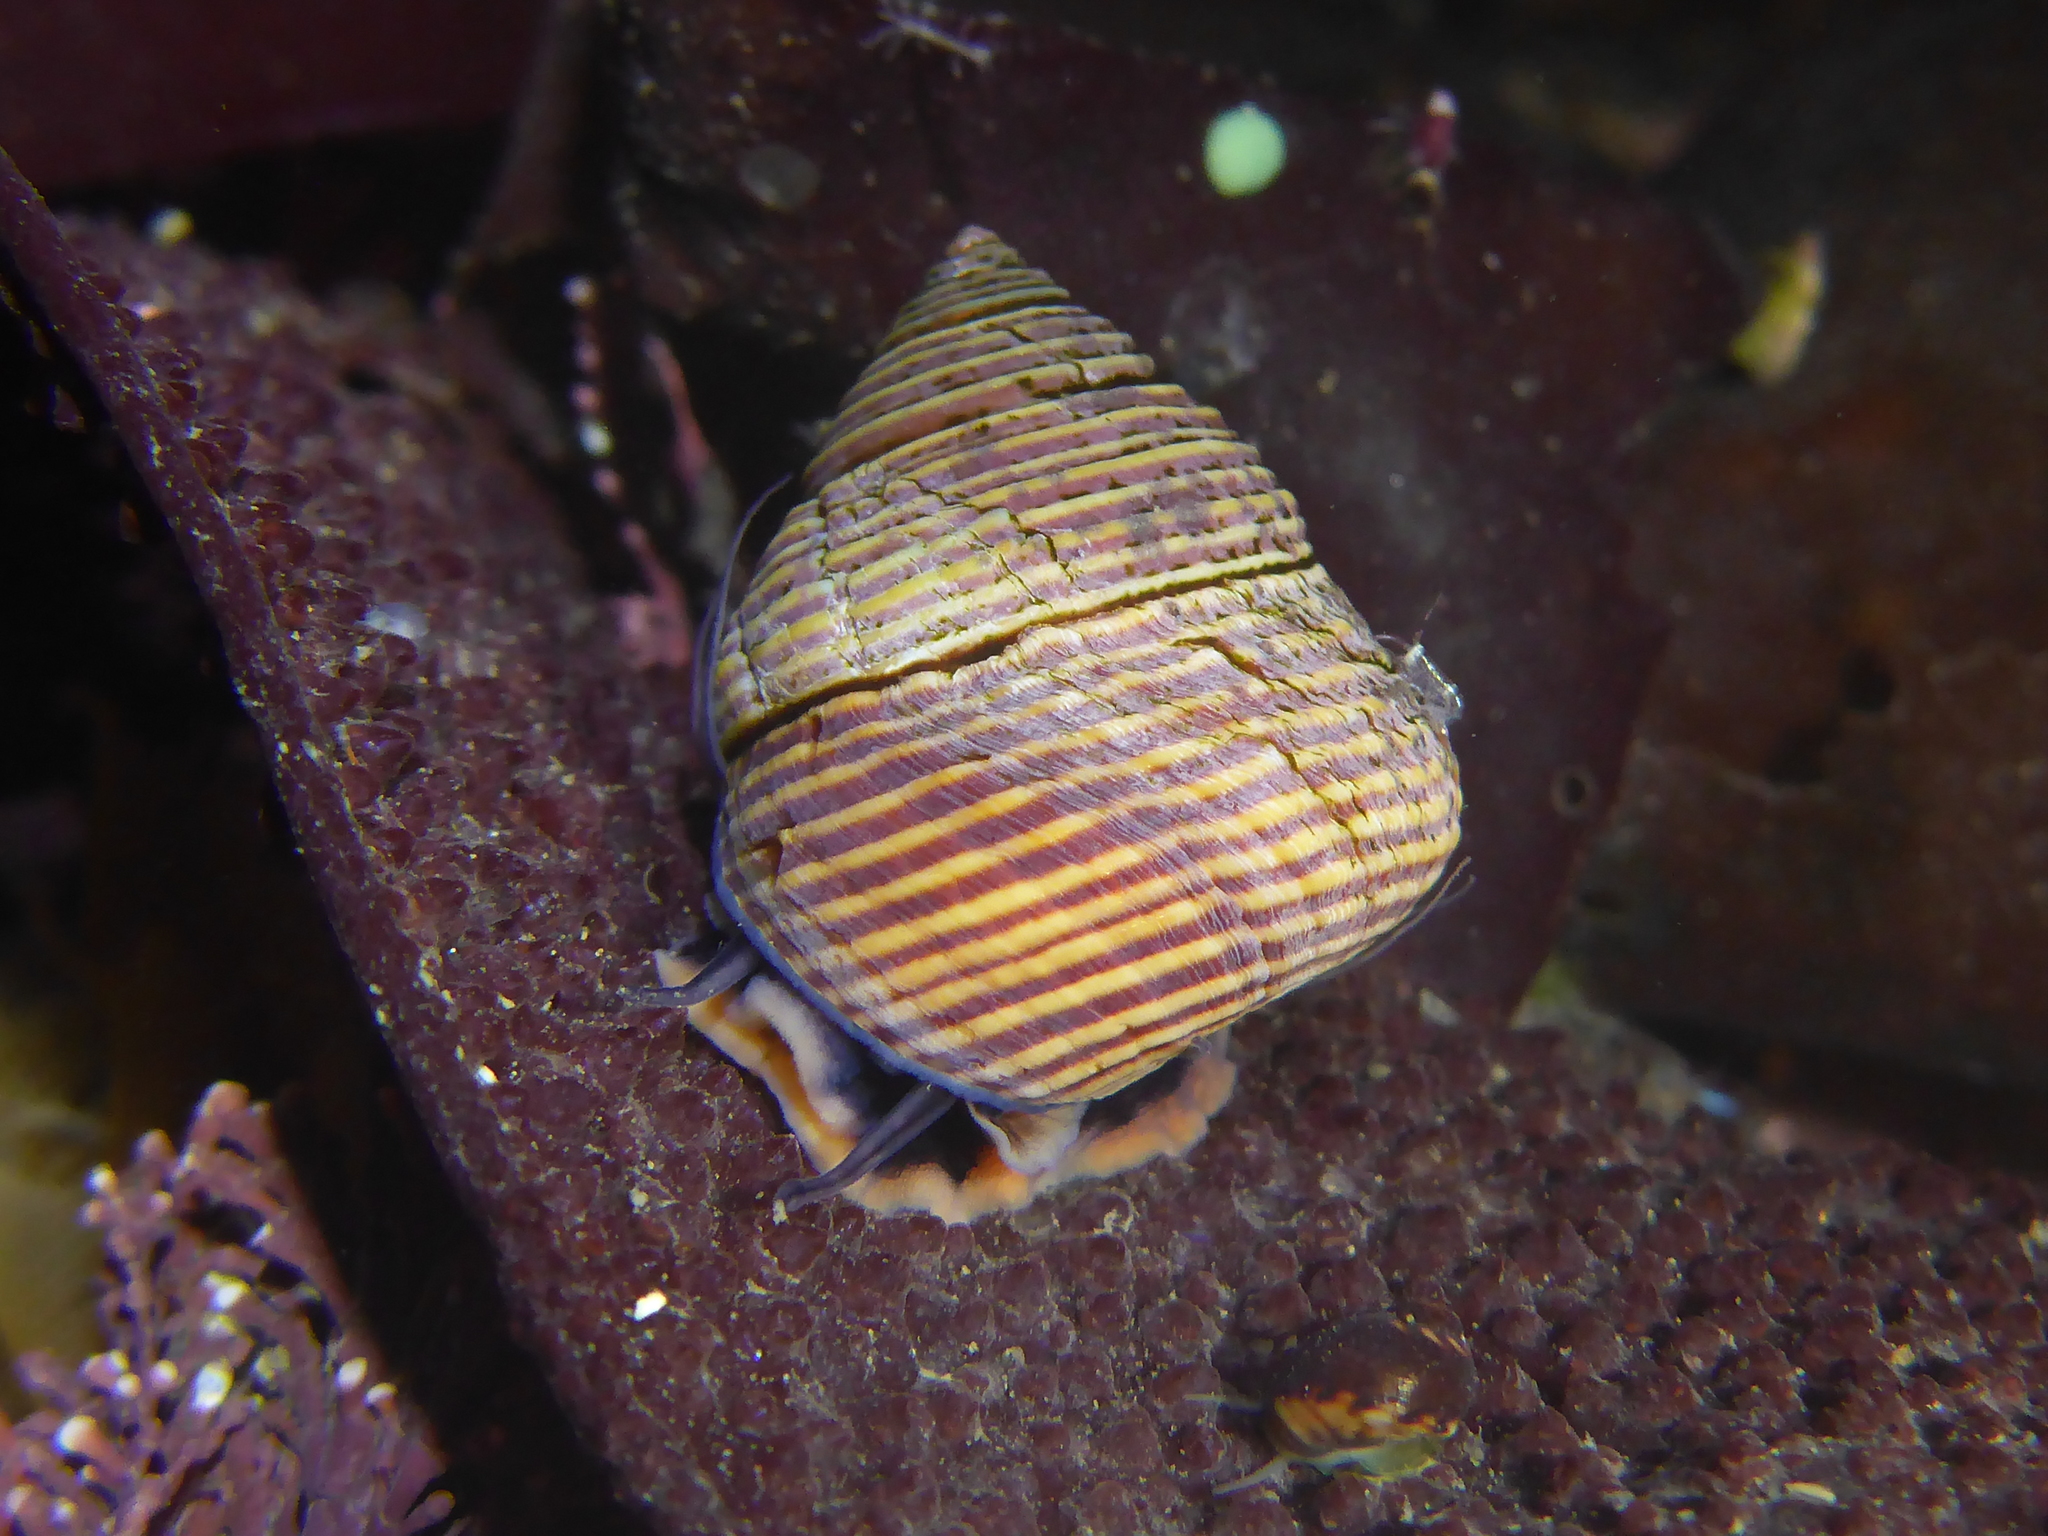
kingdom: Animalia
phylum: Mollusca
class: Gastropoda
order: Trochida
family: Calliostomatidae
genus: Calliostoma
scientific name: Calliostoma ligatum
